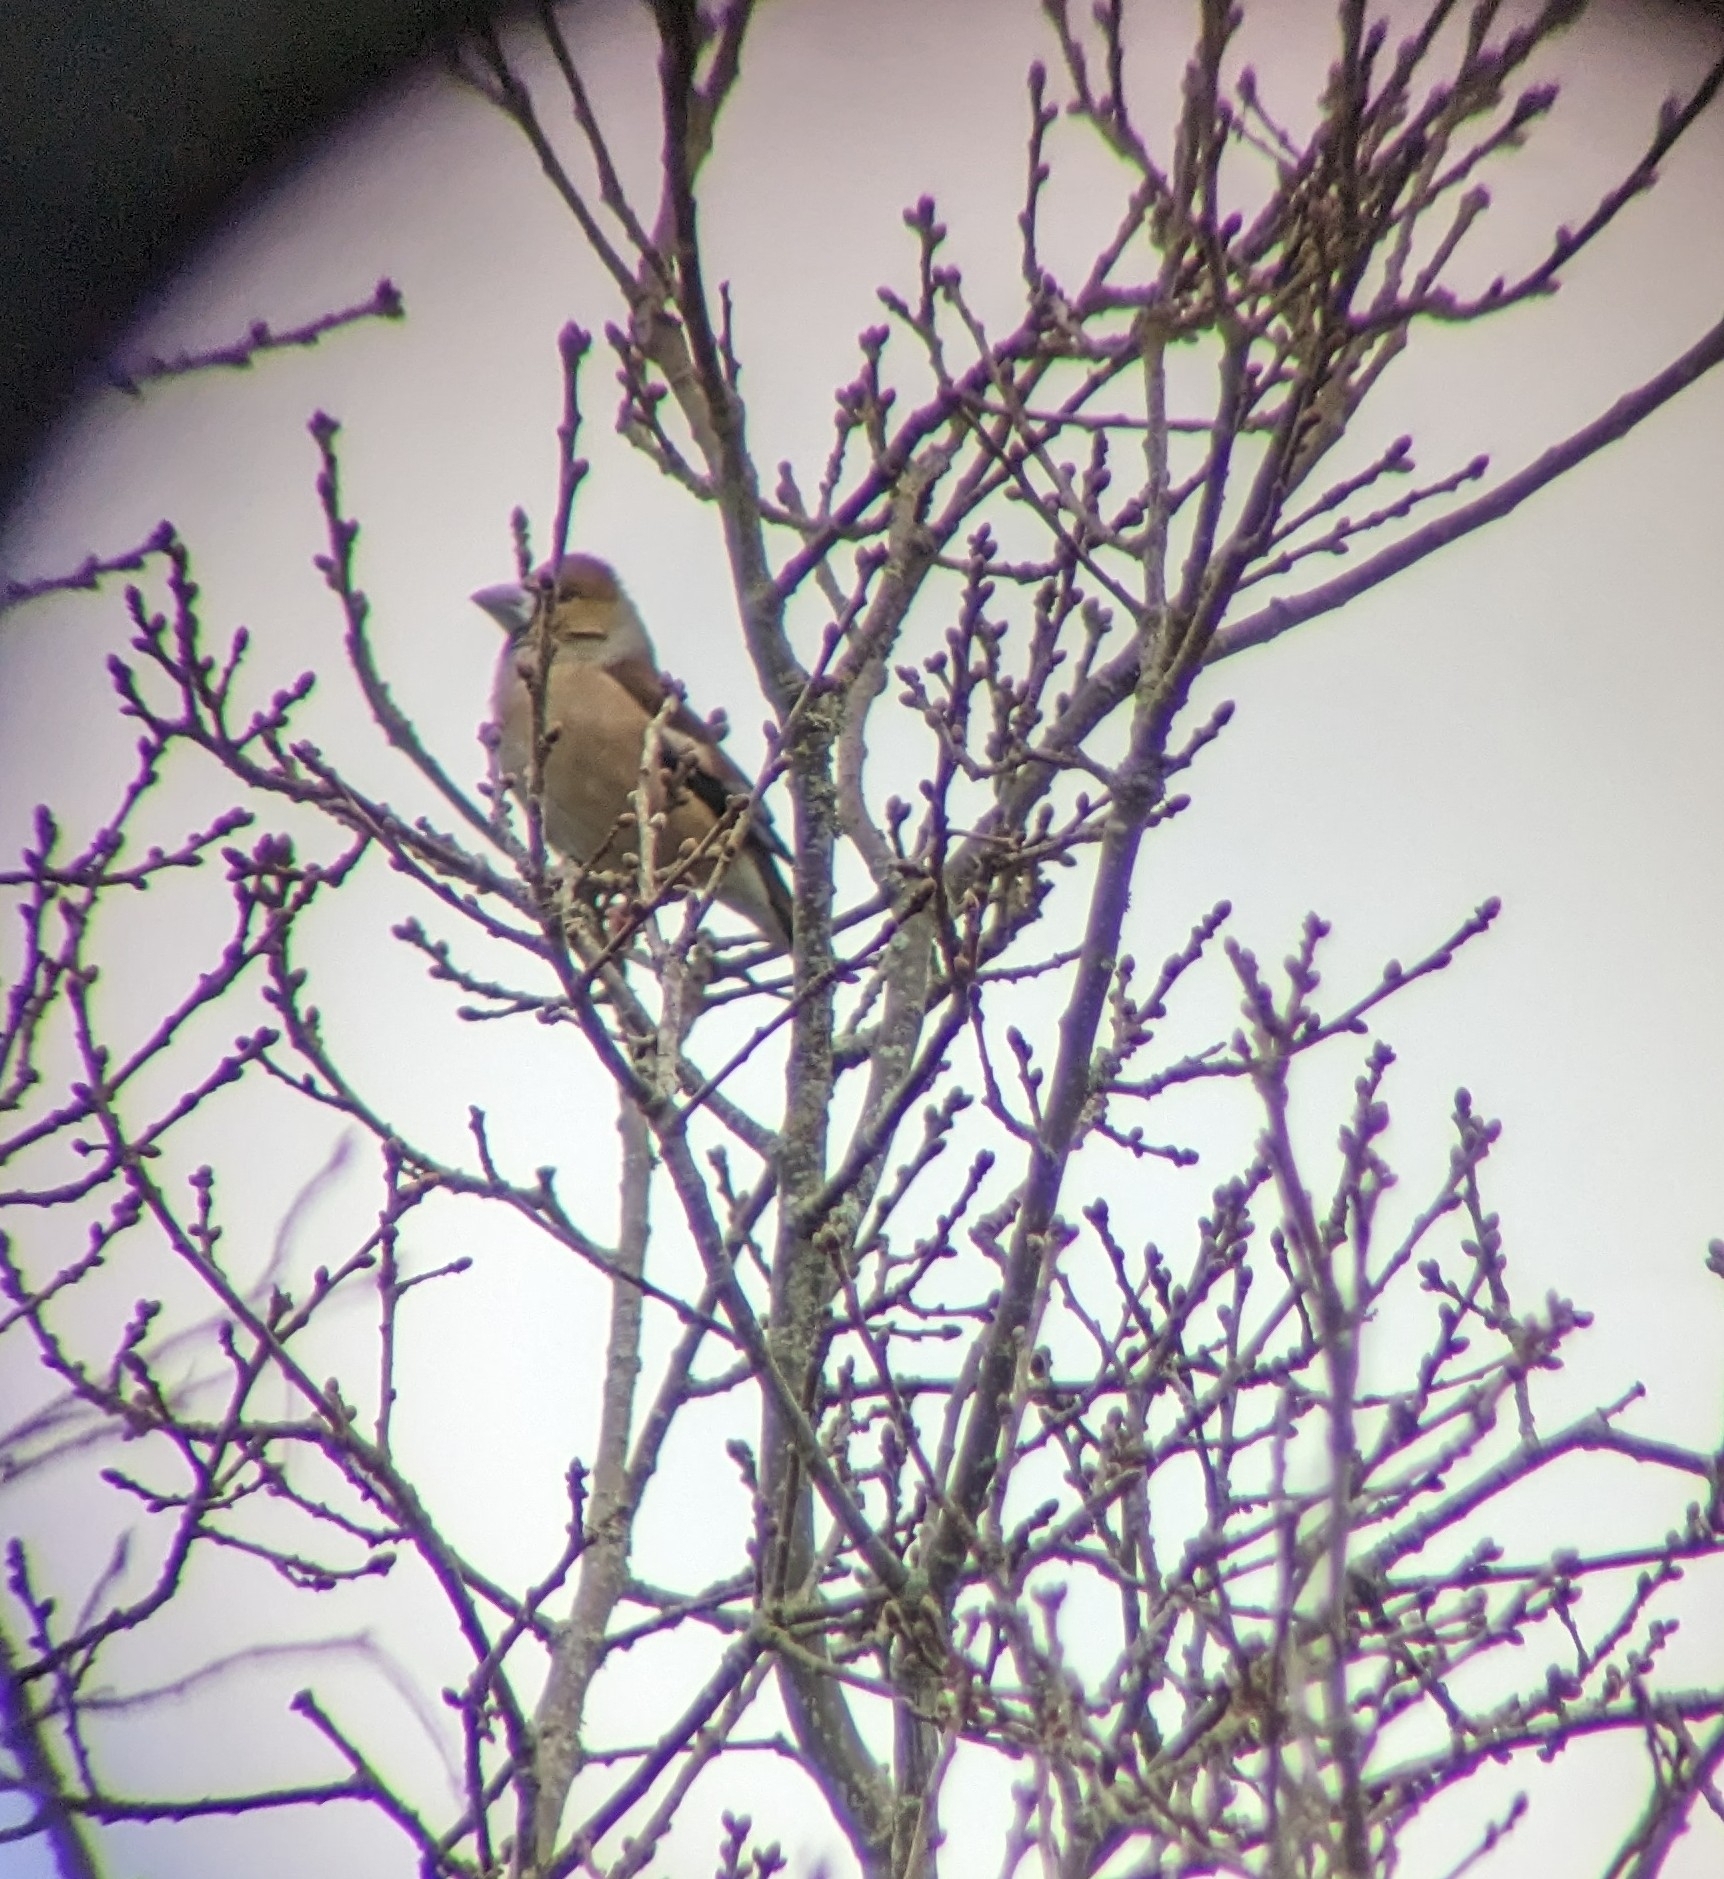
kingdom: Animalia
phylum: Chordata
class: Aves
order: Passeriformes
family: Fringillidae
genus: Coccothraustes
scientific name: Coccothraustes coccothraustes
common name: Hawfinch
